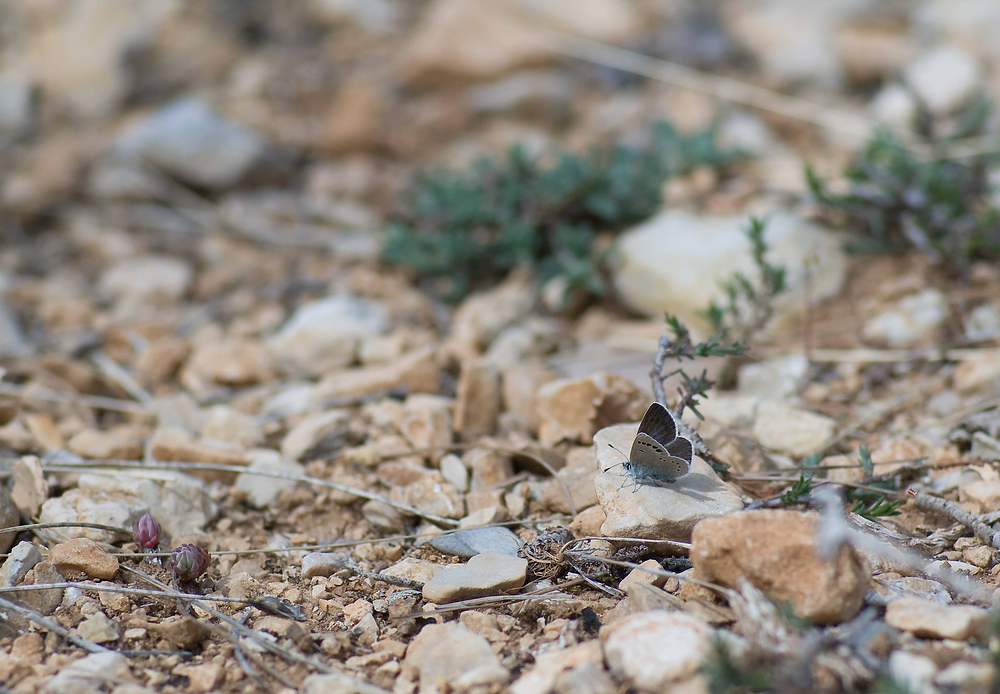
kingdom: Animalia
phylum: Arthropoda
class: Insecta
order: Lepidoptera
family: Lycaenidae
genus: Glaucopsyche
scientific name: Glaucopsyche melanops
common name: Black-eyed blue
